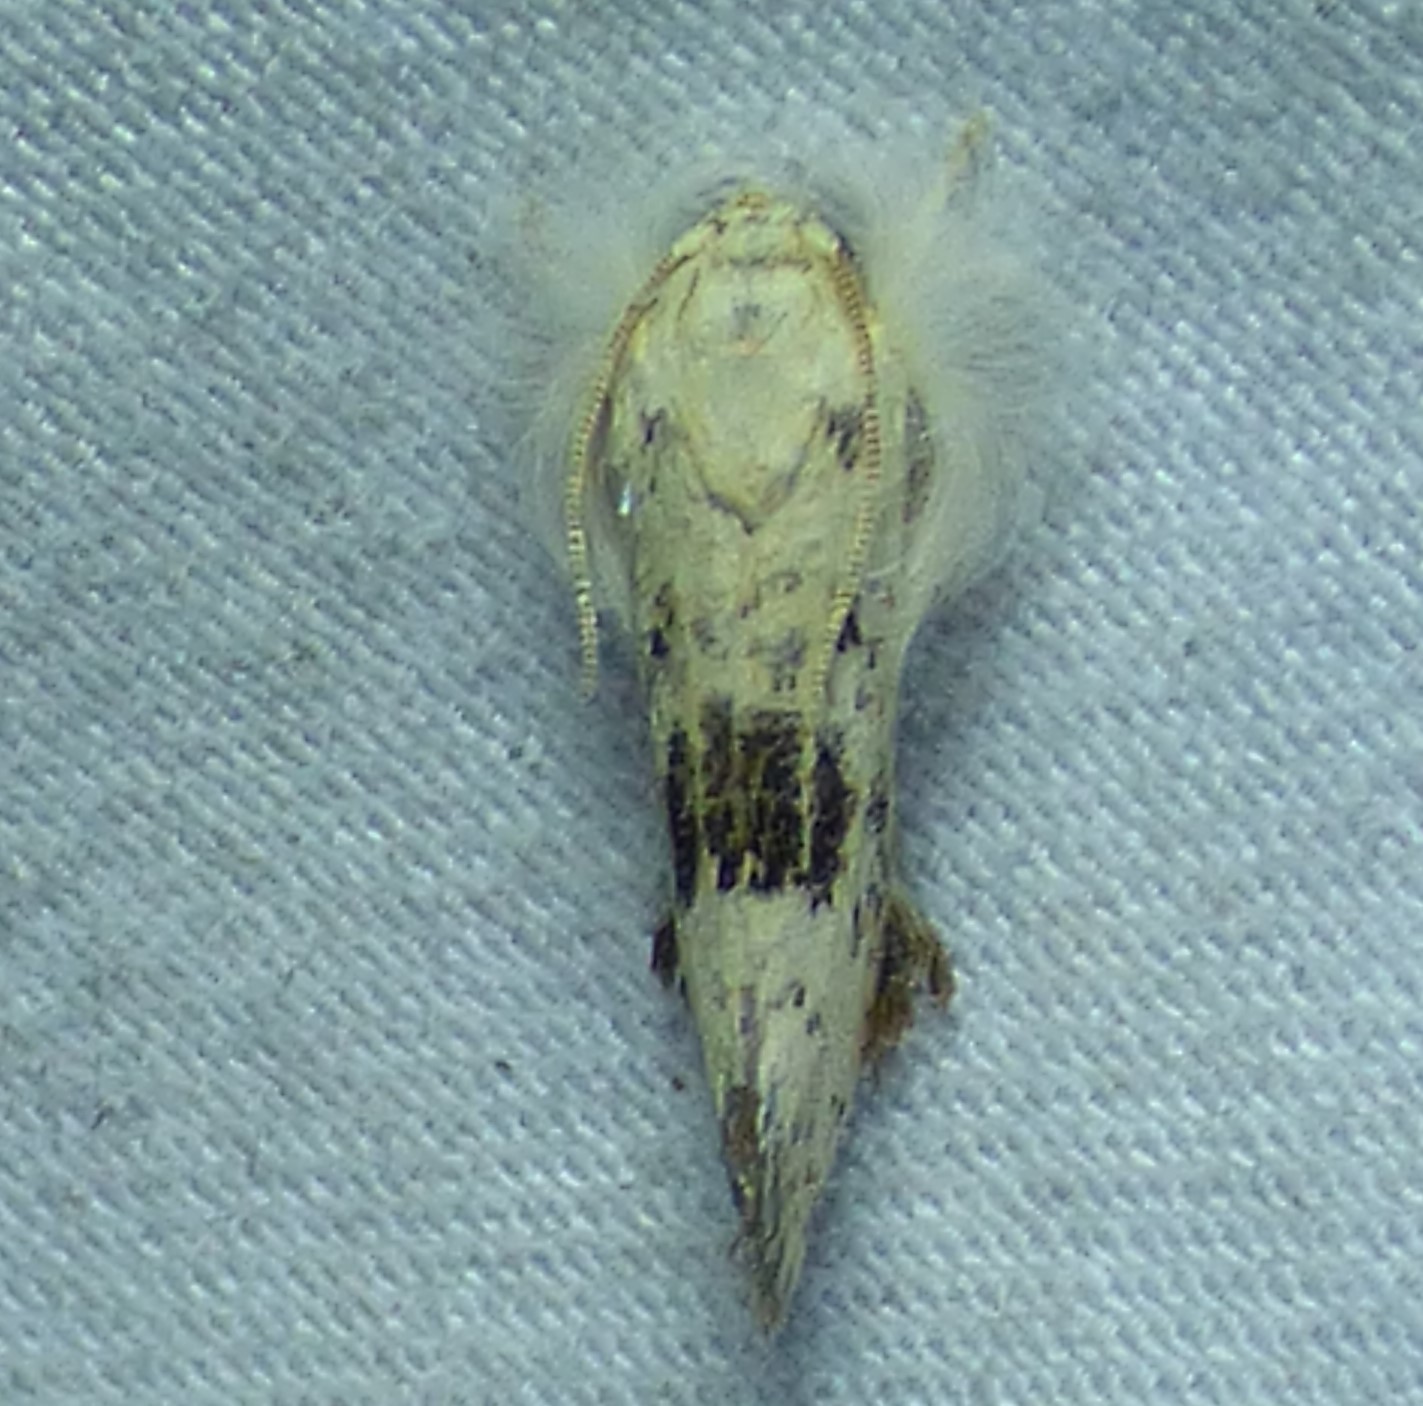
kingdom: Animalia
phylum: Arthropoda
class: Insecta
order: Lepidoptera
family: Tineidae
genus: Acrolophus
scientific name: Acrolophus mycetophagus
